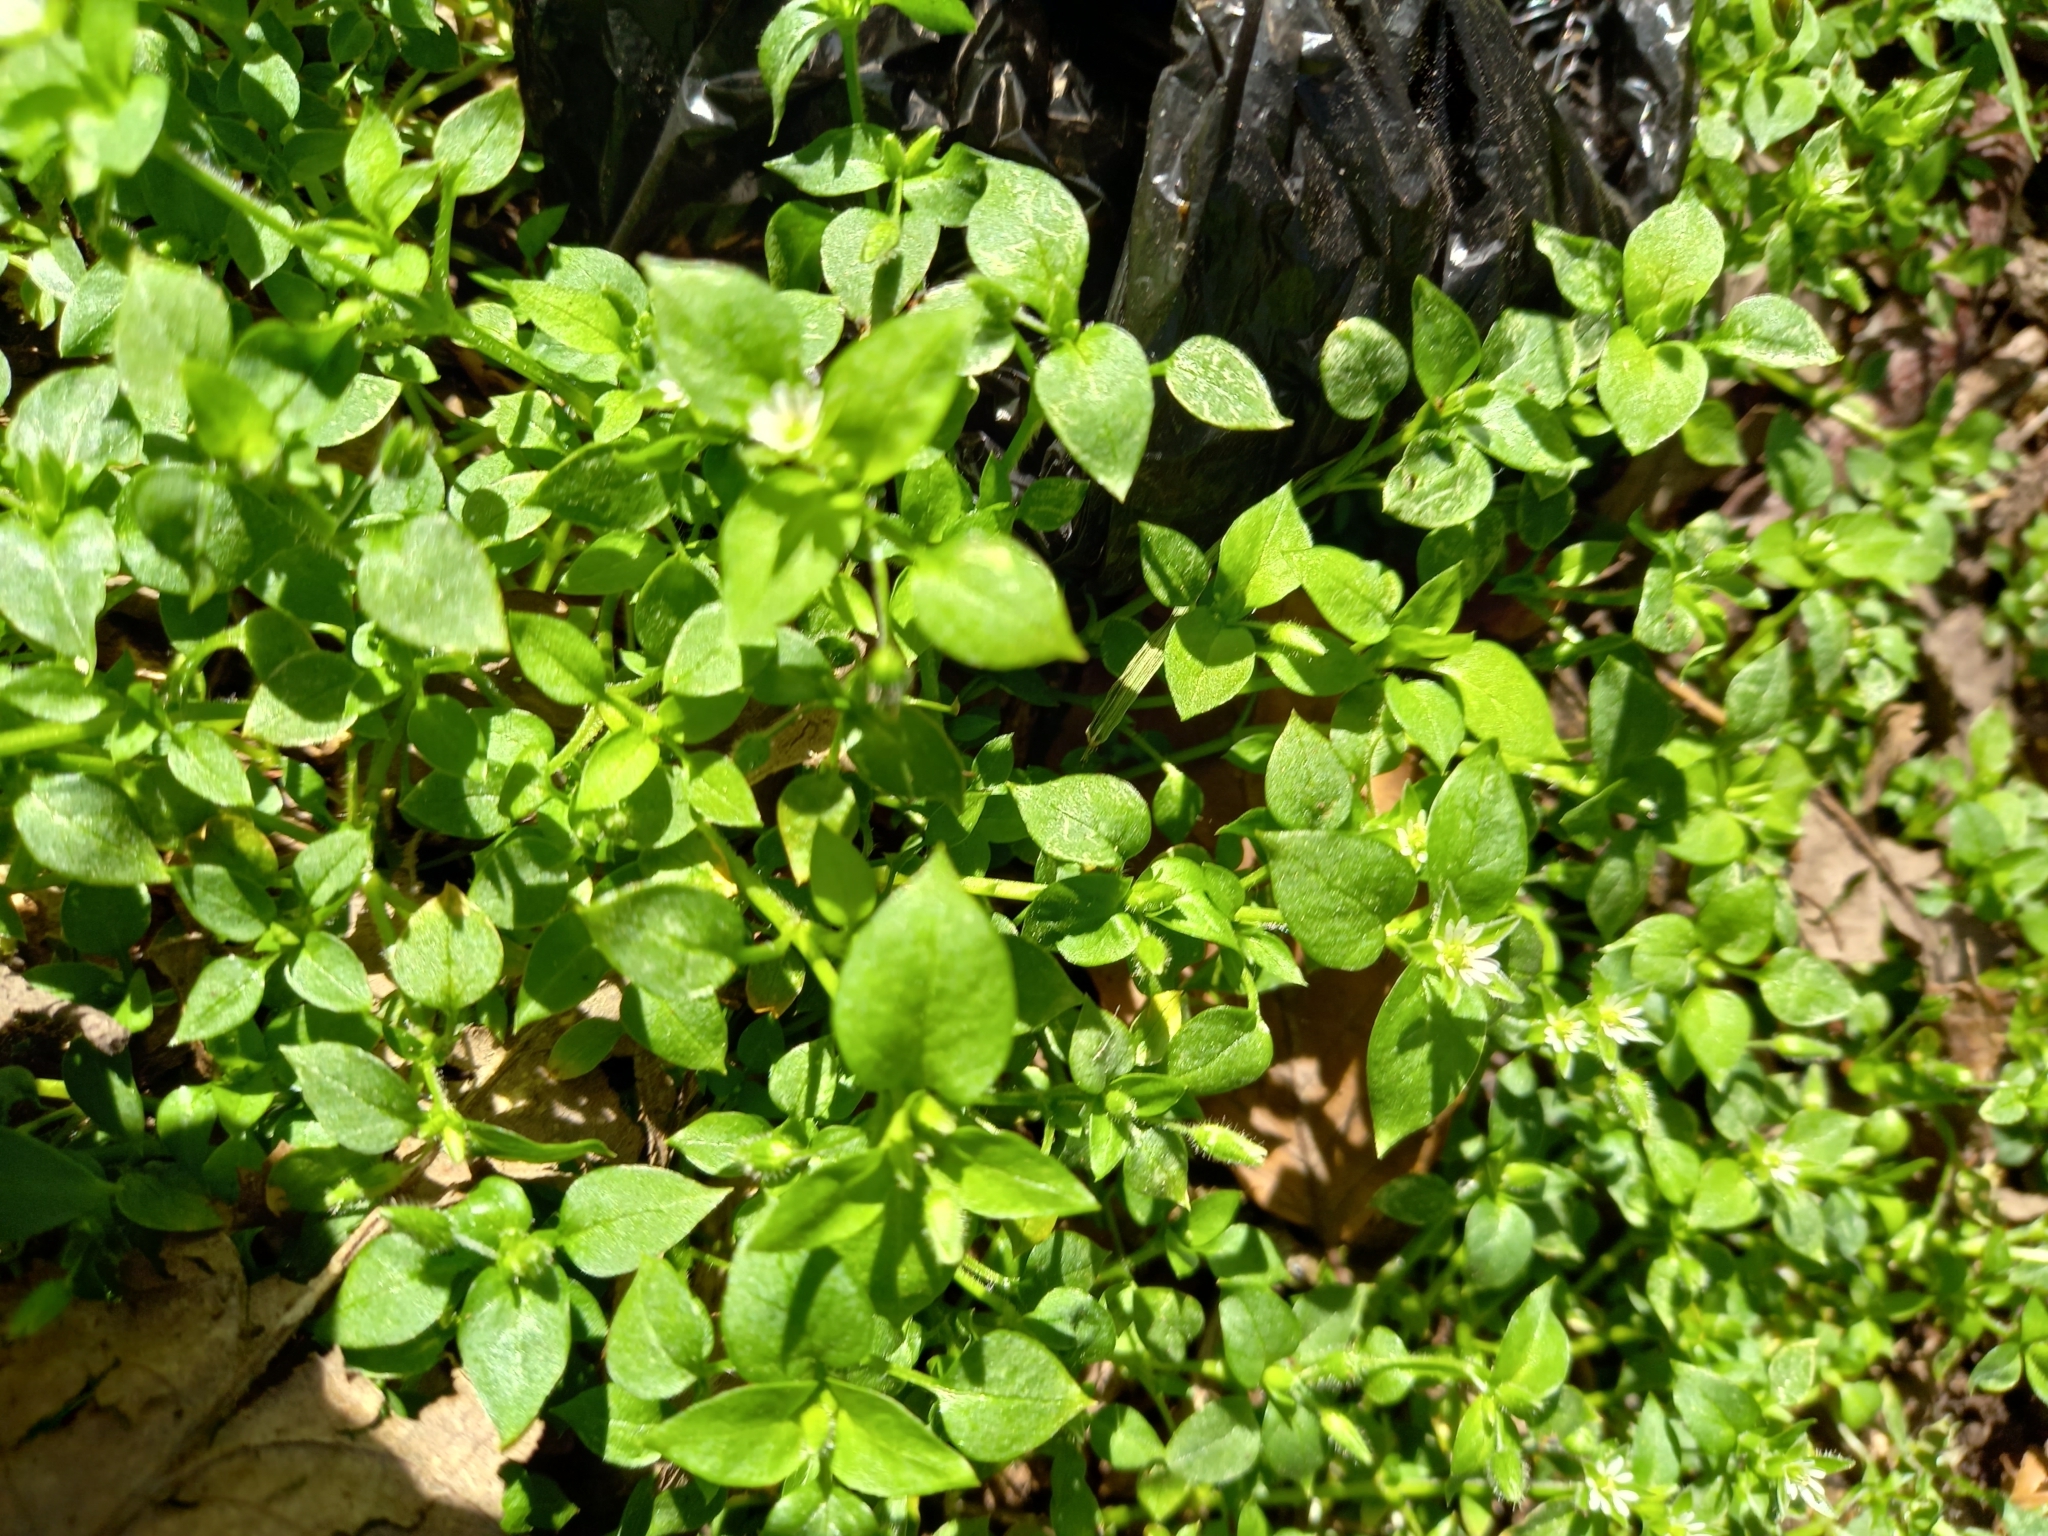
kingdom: Plantae
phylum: Tracheophyta
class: Magnoliopsida
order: Caryophyllales
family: Caryophyllaceae
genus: Stellaria
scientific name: Stellaria media
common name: Common chickweed
